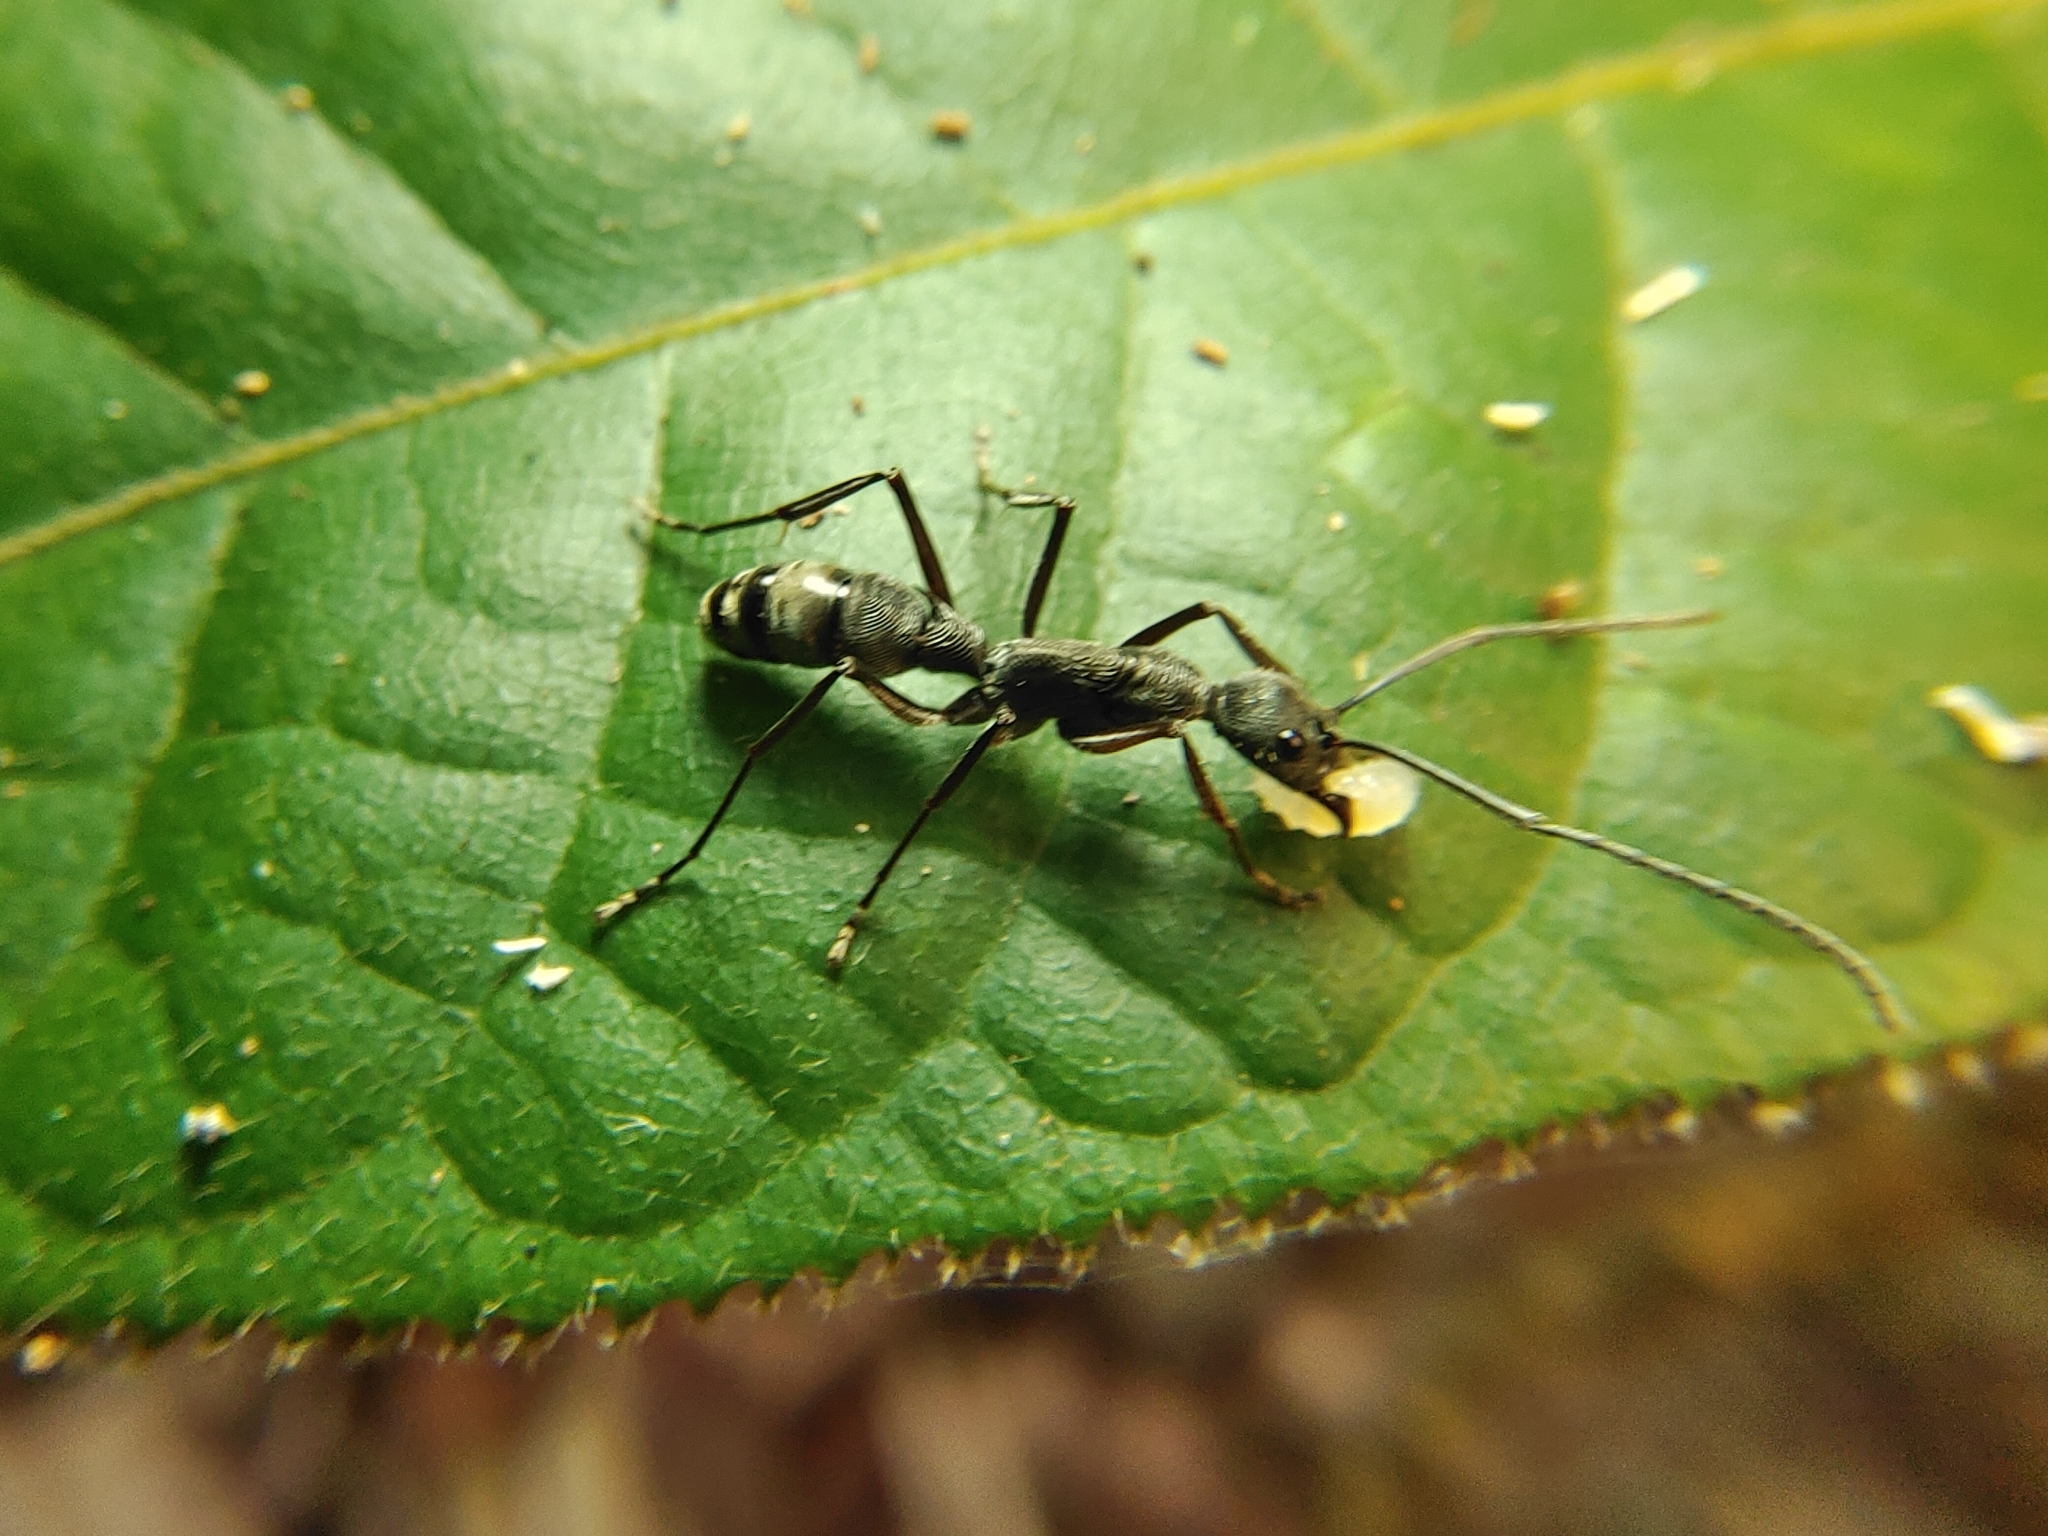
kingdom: Animalia
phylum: Arthropoda
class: Insecta
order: Hymenoptera
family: Formicidae
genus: Diacamma
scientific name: Diacamma geometricum
